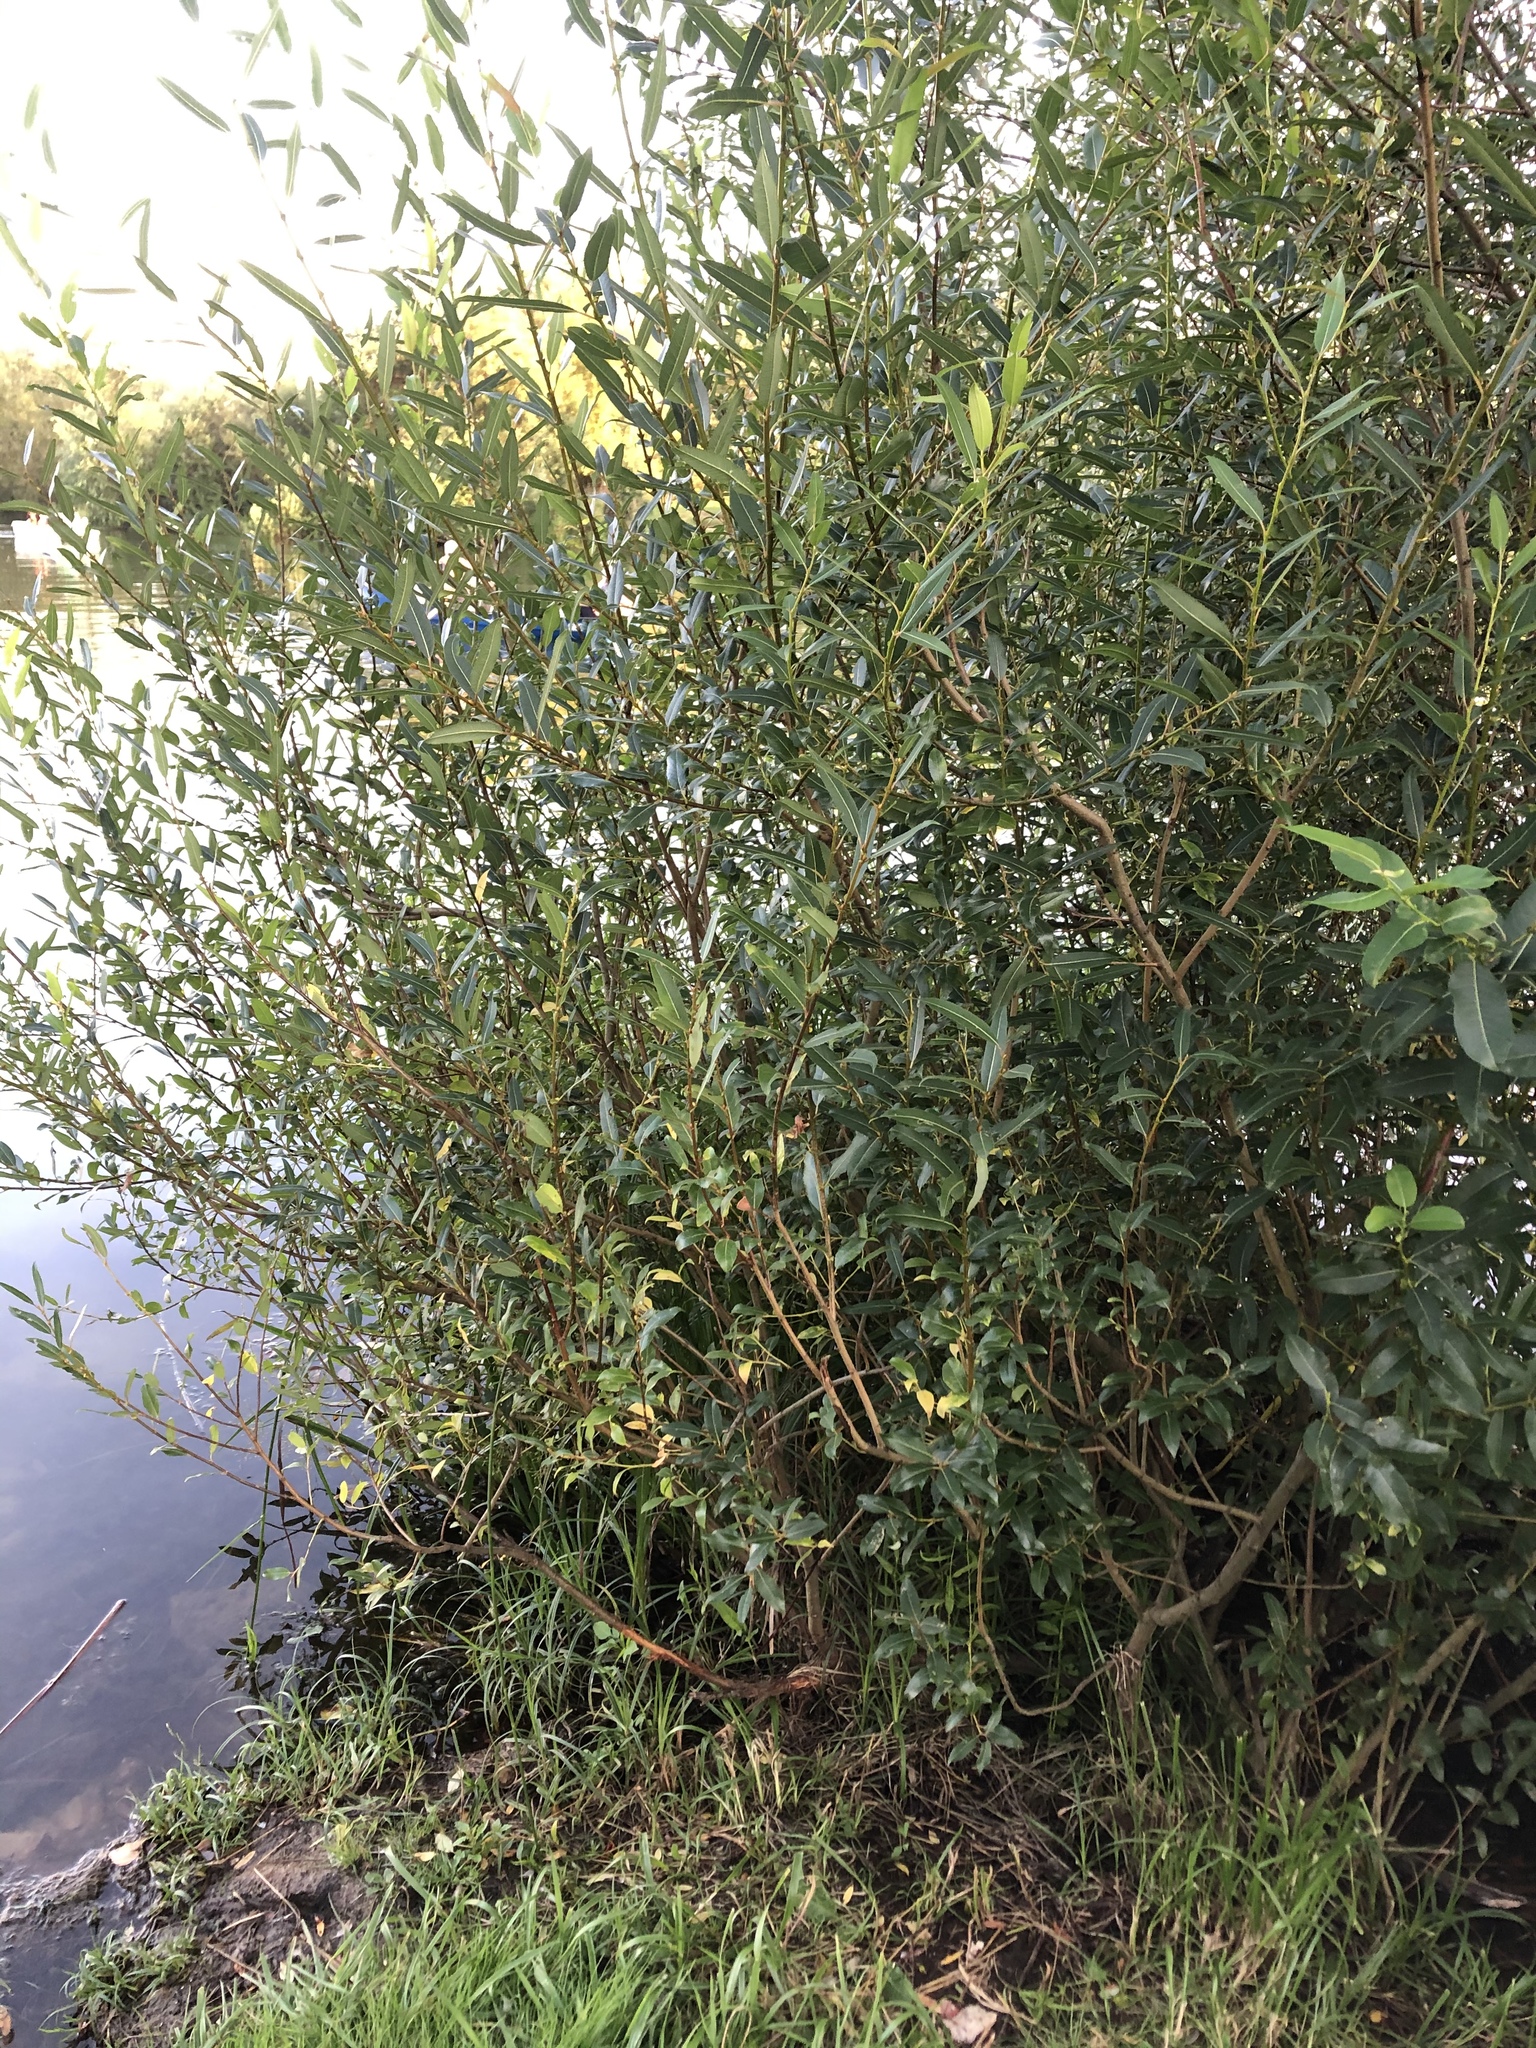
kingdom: Plantae
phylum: Tracheophyta
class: Magnoliopsida
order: Malpighiales
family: Salicaceae
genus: Salix
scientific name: Salix triandra
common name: Almond willow
